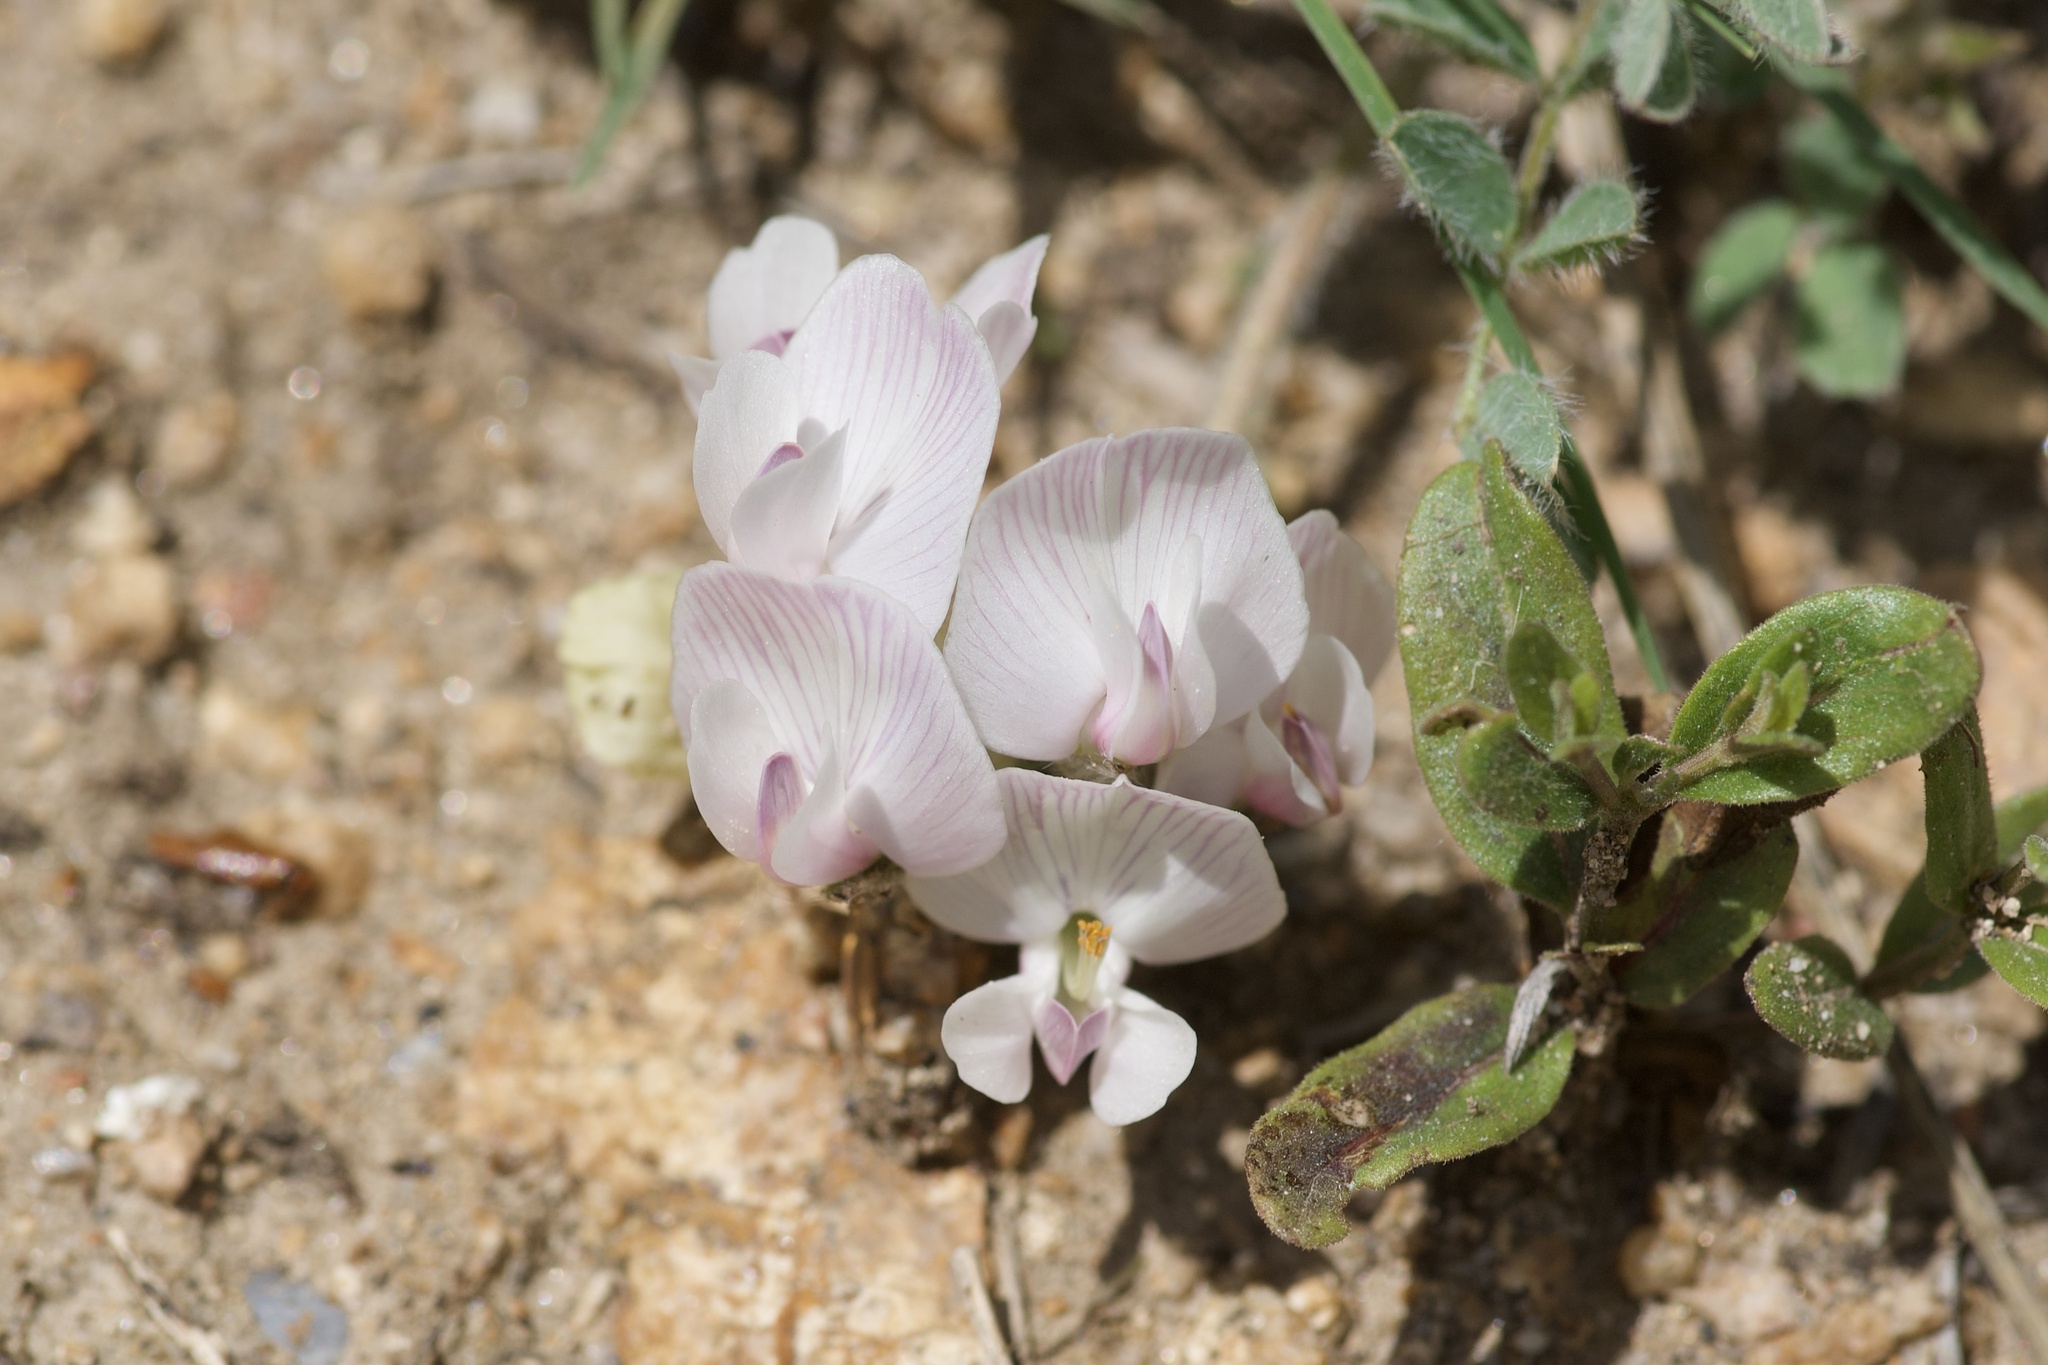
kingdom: Plantae
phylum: Tracheophyta
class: Magnoliopsida
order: Fabales
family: Fabaceae
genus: Astragalus
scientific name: Astragalus parryi
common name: Parry milk-vetch
